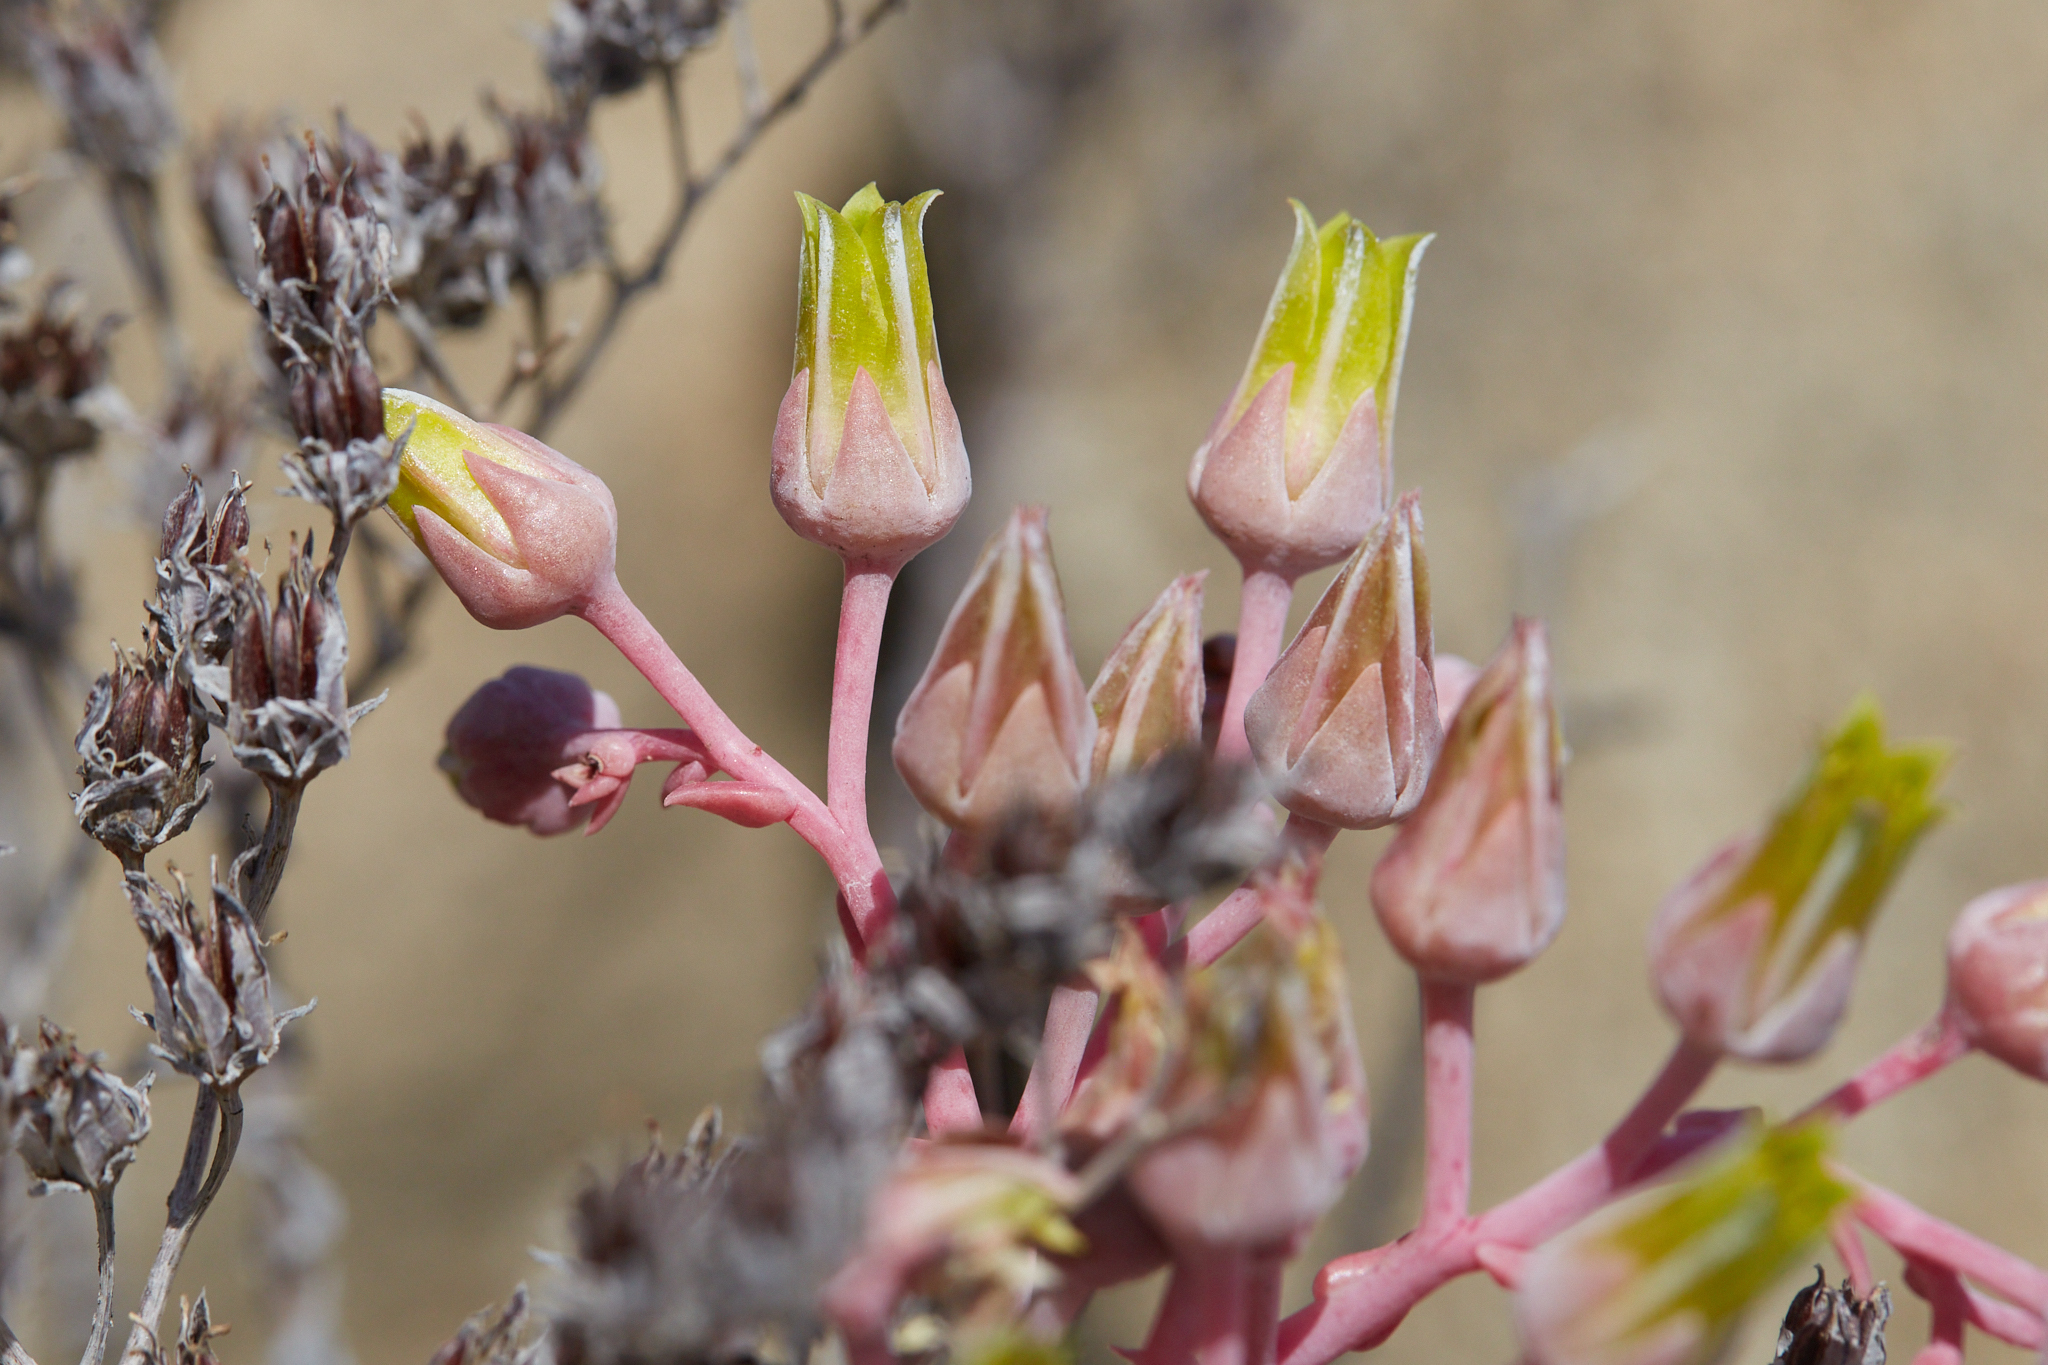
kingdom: Plantae
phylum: Tracheophyta
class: Magnoliopsida
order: Saxifragales
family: Crassulaceae
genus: Dudleya
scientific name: Dudleya saxosa
